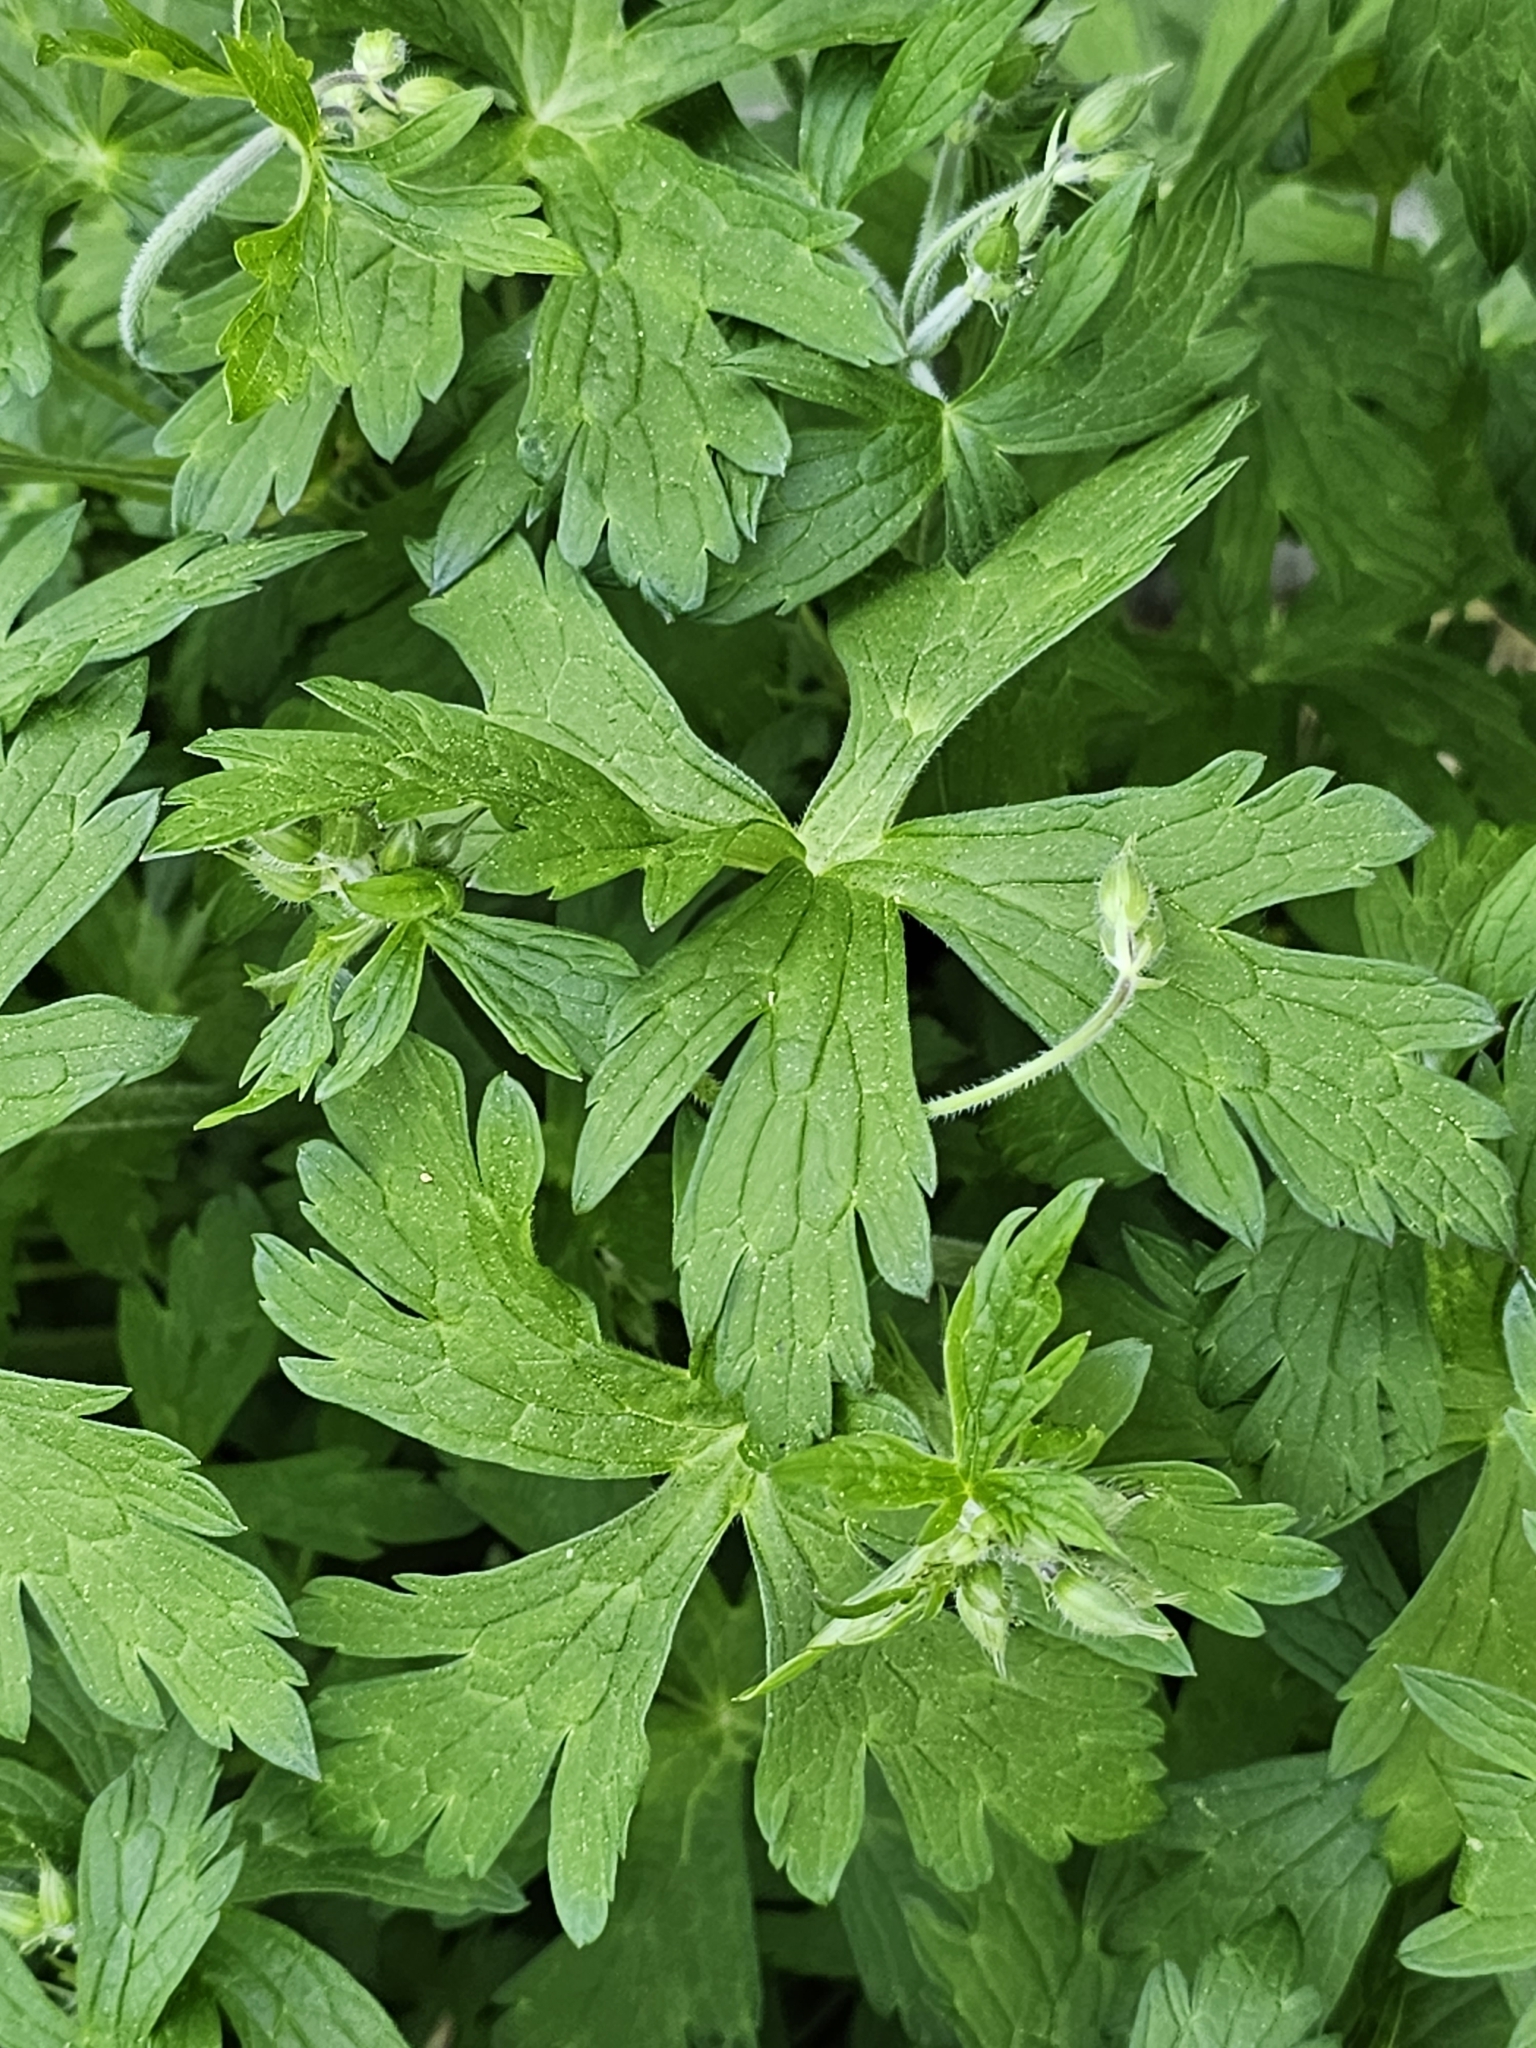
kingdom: Plantae
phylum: Tracheophyta
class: Magnoliopsida
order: Geraniales
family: Geraniaceae
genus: Geranium
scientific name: Geranium maculatum
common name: Spotted geranium
